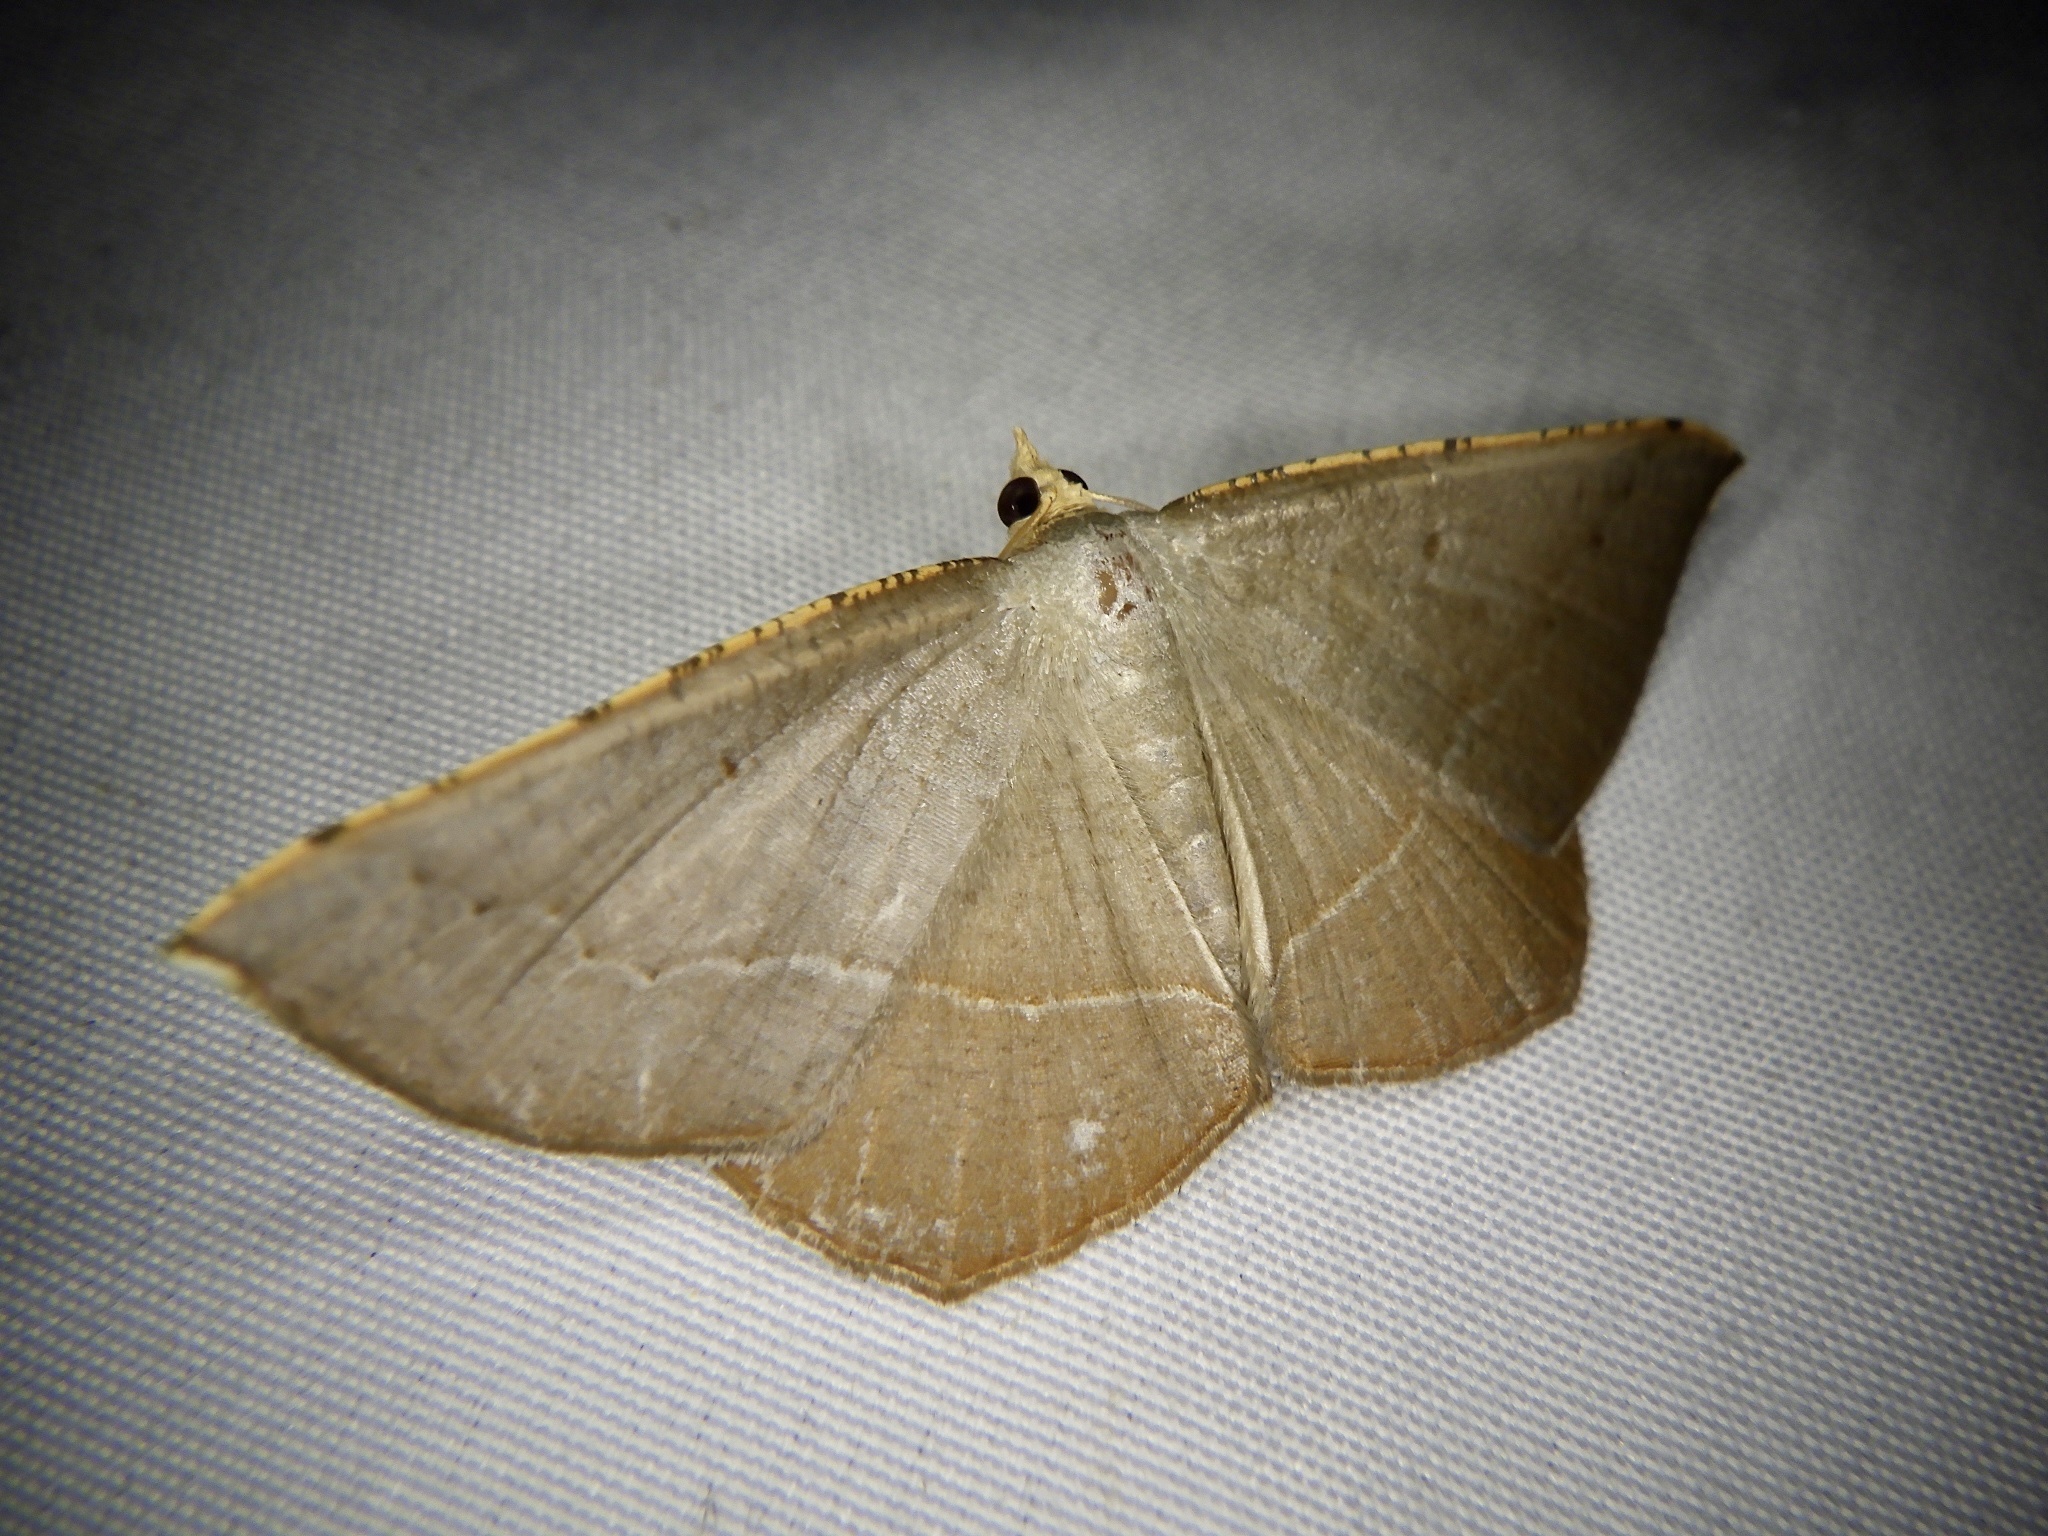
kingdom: Animalia
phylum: Arthropoda
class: Insecta
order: Lepidoptera
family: Geometridae
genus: Plesiomorpha
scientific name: Plesiomorpha flaviceps
